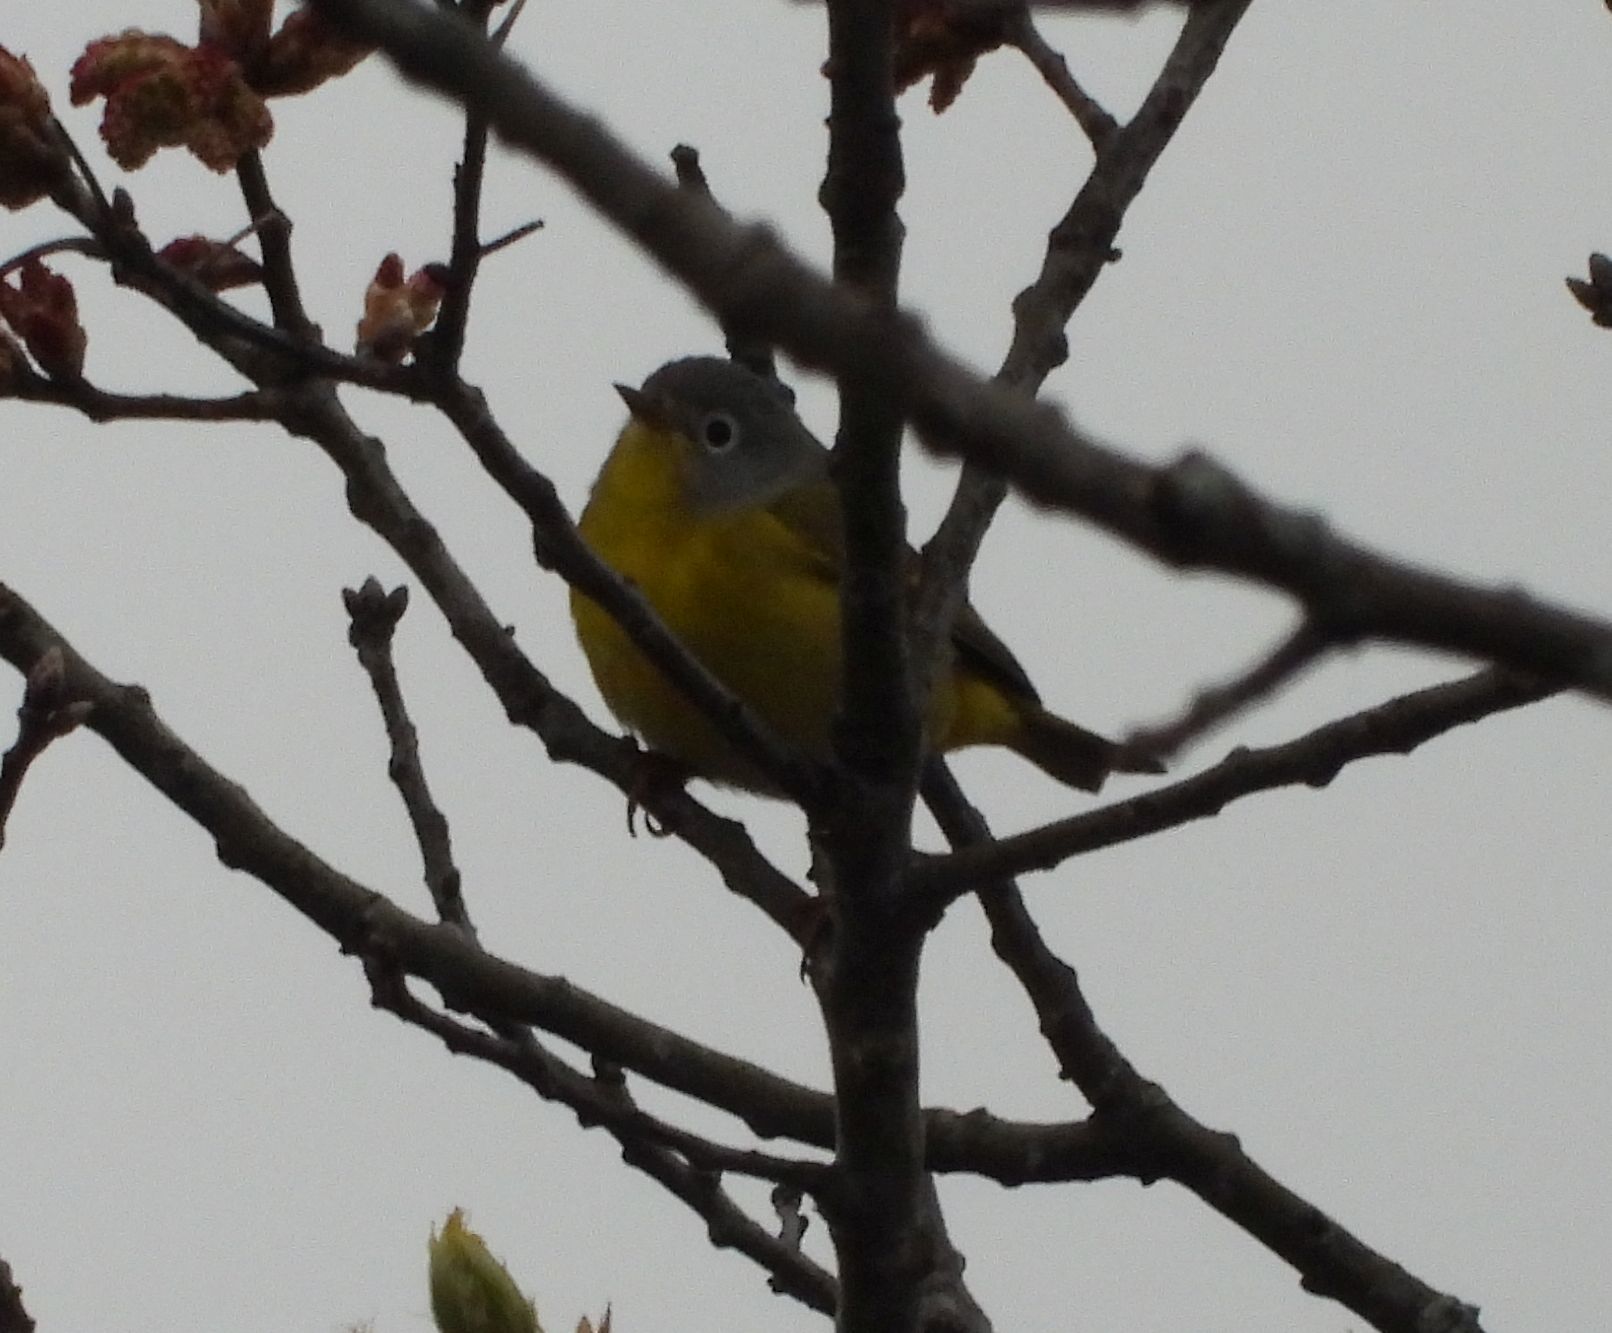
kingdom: Animalia
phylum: Chordata
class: Aves
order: Passeriformes
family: Parulidae
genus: Leiothlypis
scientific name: Leiothlypis ruficapilla
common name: Nashville warbler
